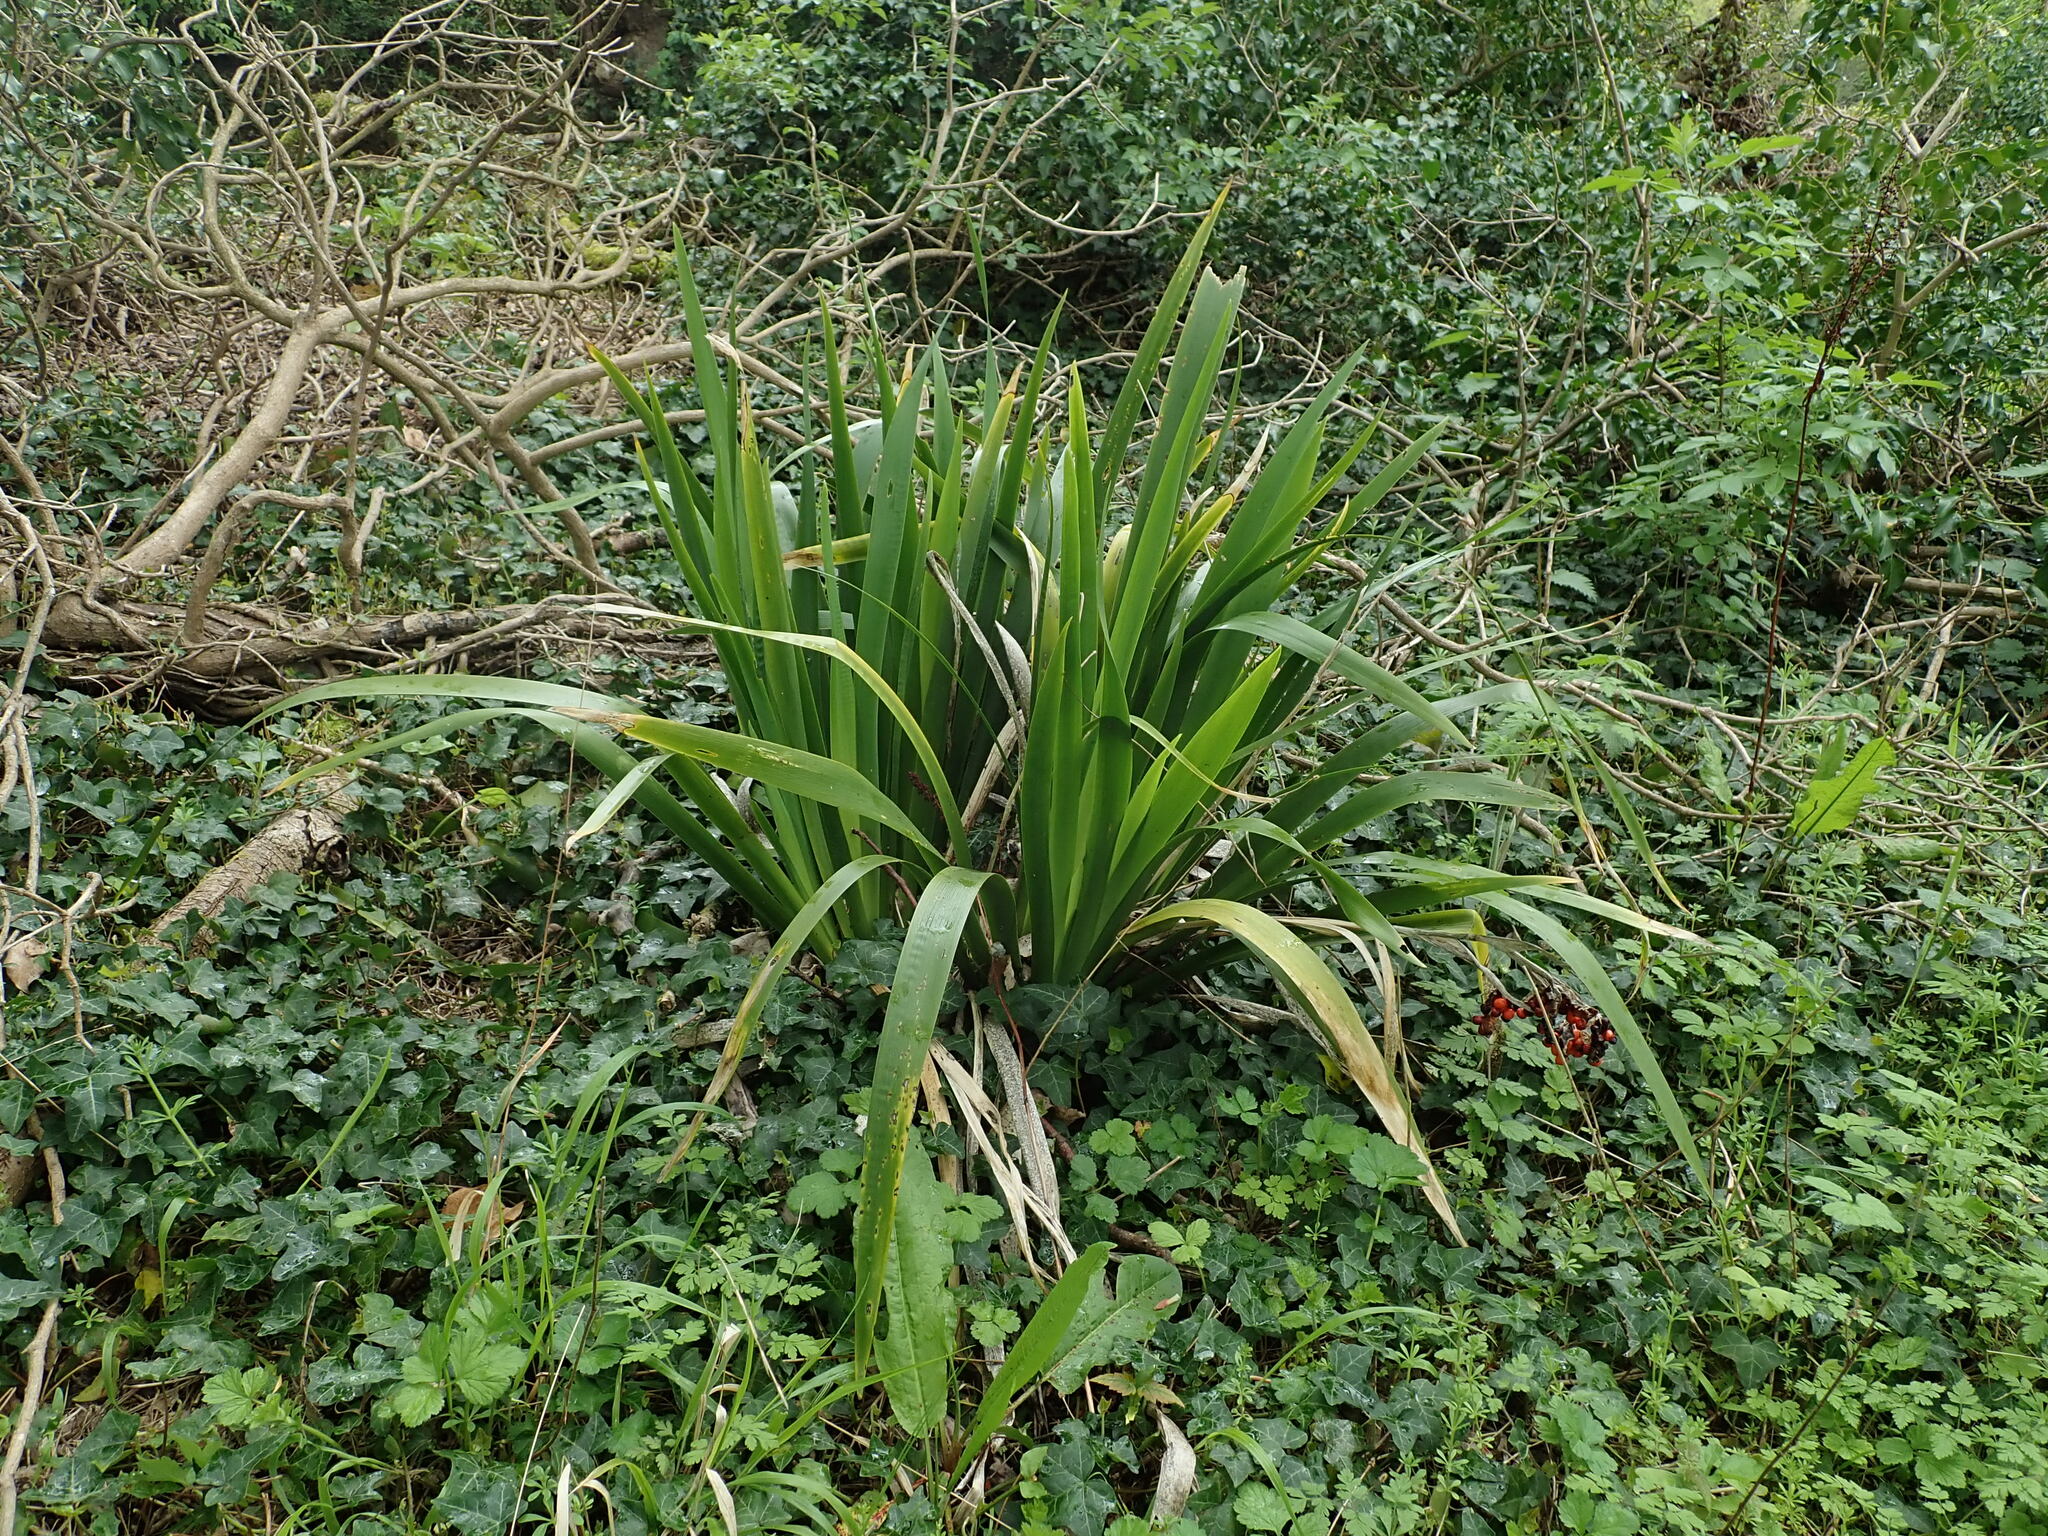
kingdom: Plantae
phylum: Tracheophyta
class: Liliopsida
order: Asparagales
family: Iridaceae
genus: Iris
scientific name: Iris foetidissima
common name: Stinking iris
